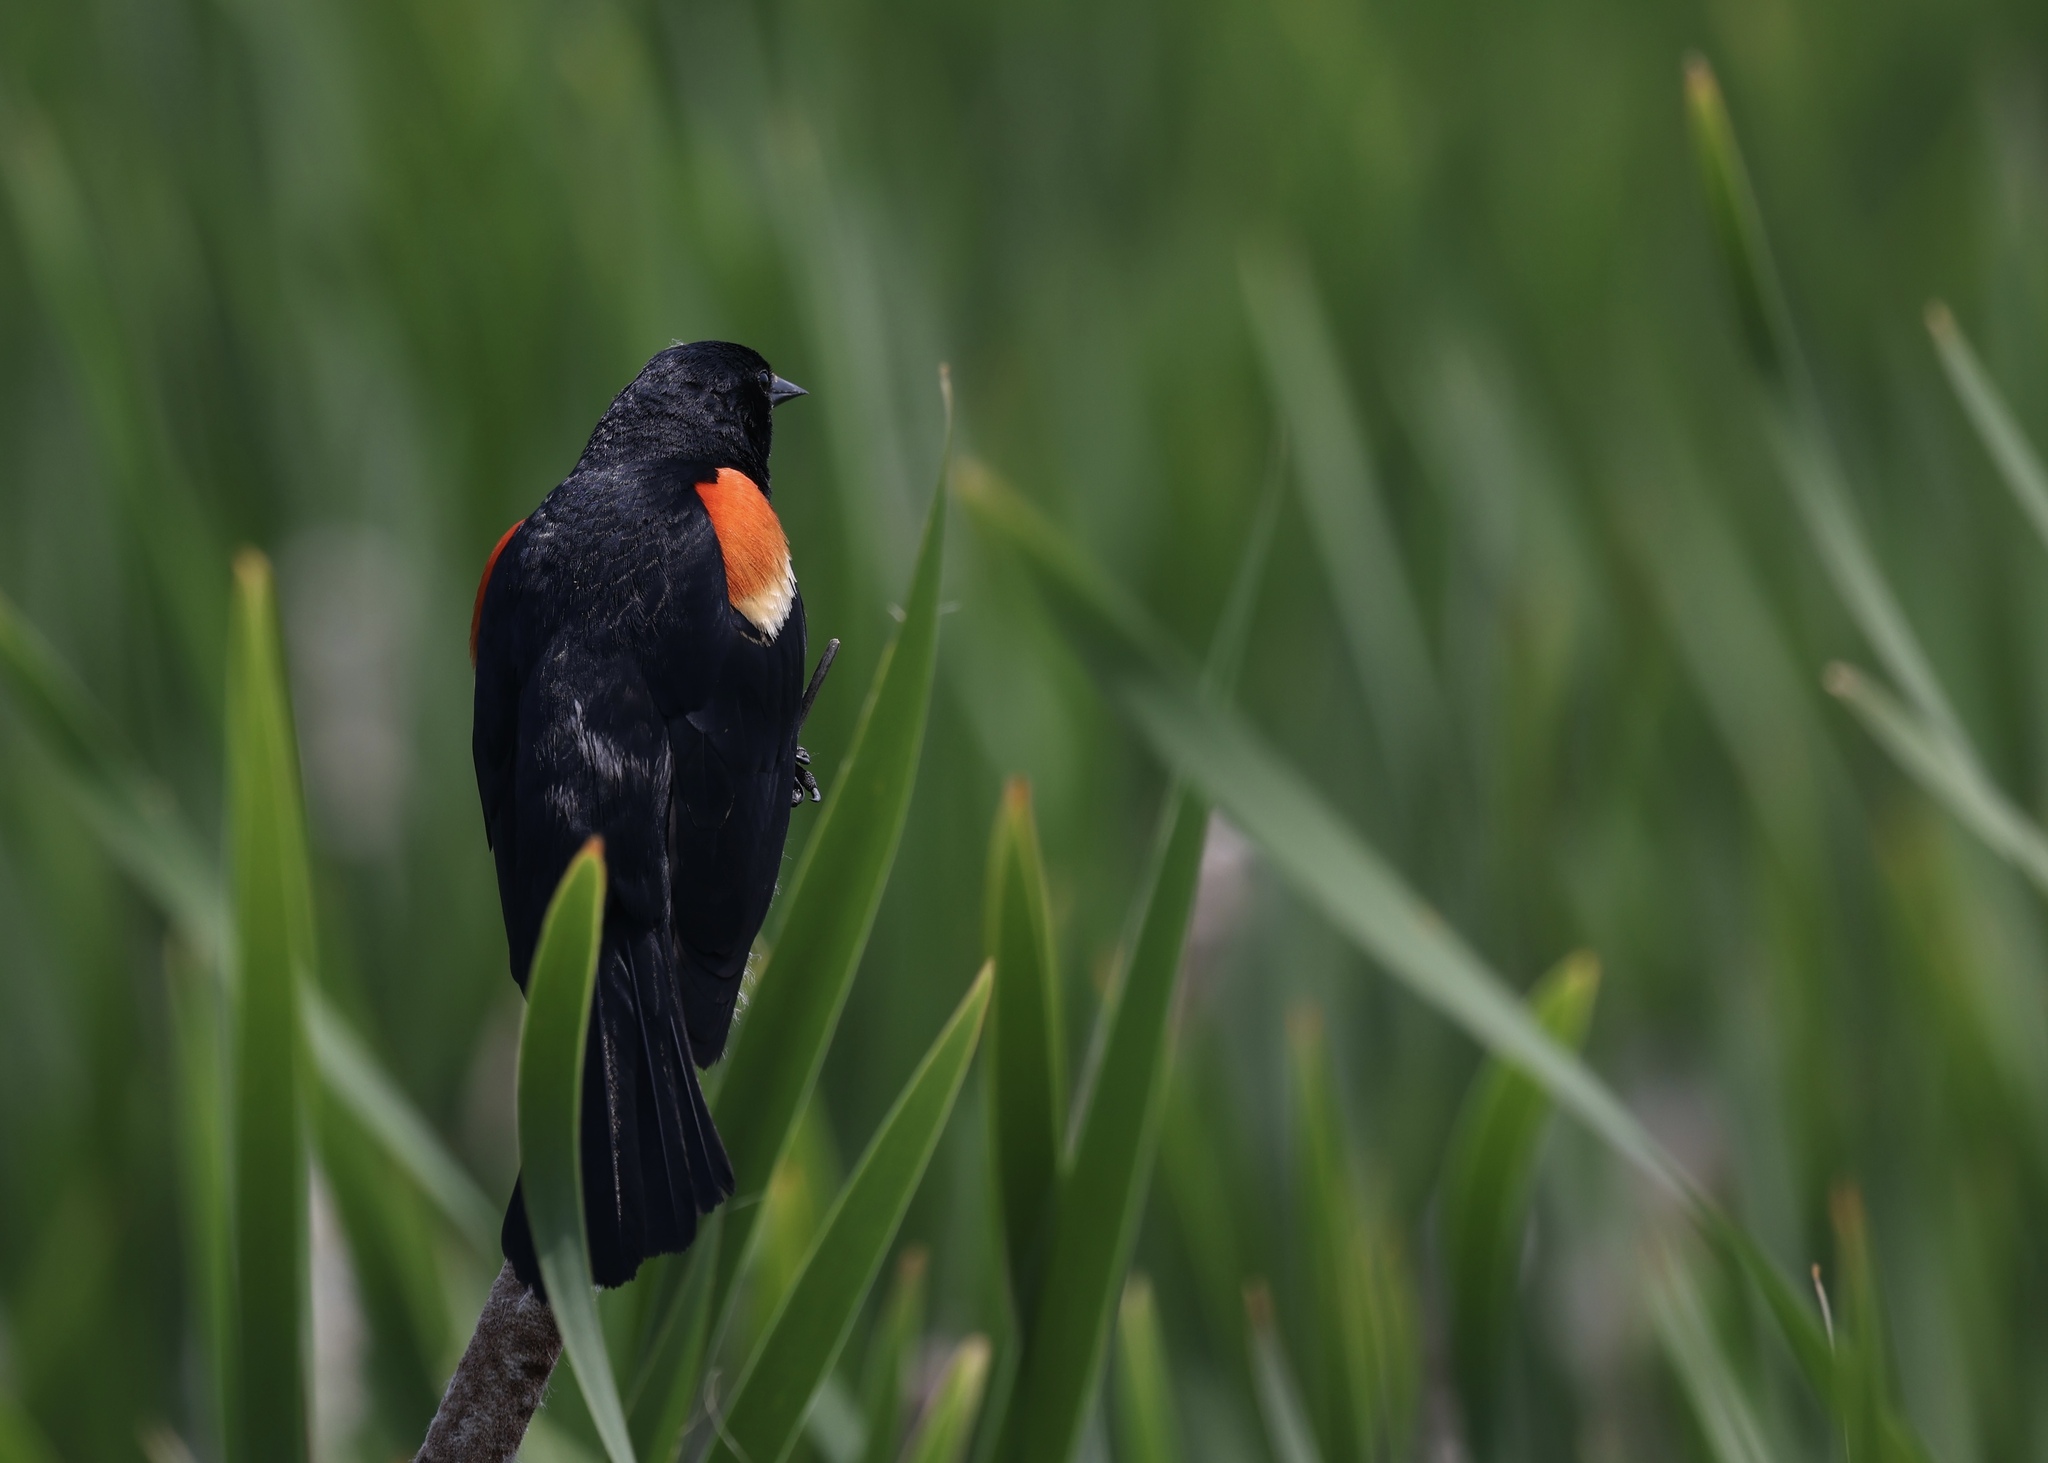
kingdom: Animalia
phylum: Chordata
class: Aves
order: Passeriformes
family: Icteridae
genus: Agelaius
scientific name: Agelaius phoeniceus
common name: Red-winged blackbird
